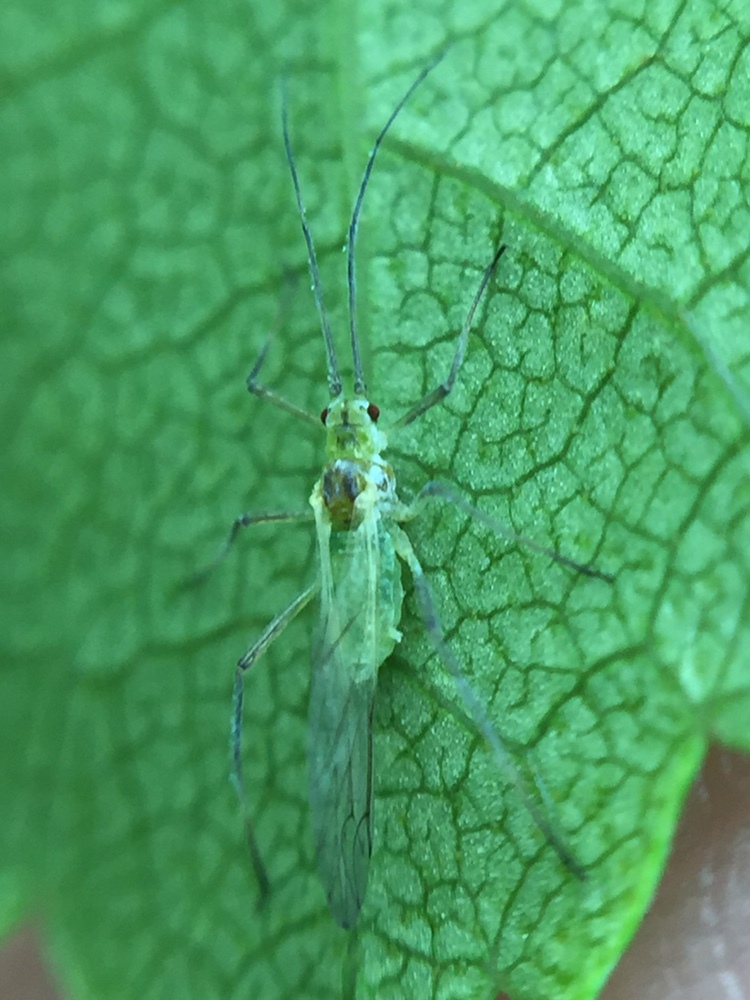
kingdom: Animalia
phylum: Arthropoda
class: Insecta
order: Hemiptera
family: Aphididae
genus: Euceraphis
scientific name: Euceraphis betulae
